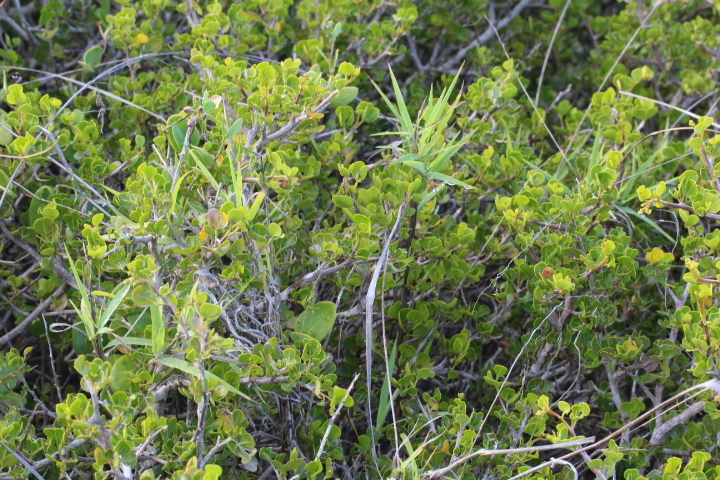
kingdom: Plantae
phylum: Tracheophyta
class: Magnoliopsida
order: Sapindales
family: Anacardiaceae
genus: Searsia
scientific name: Searsia glauca
